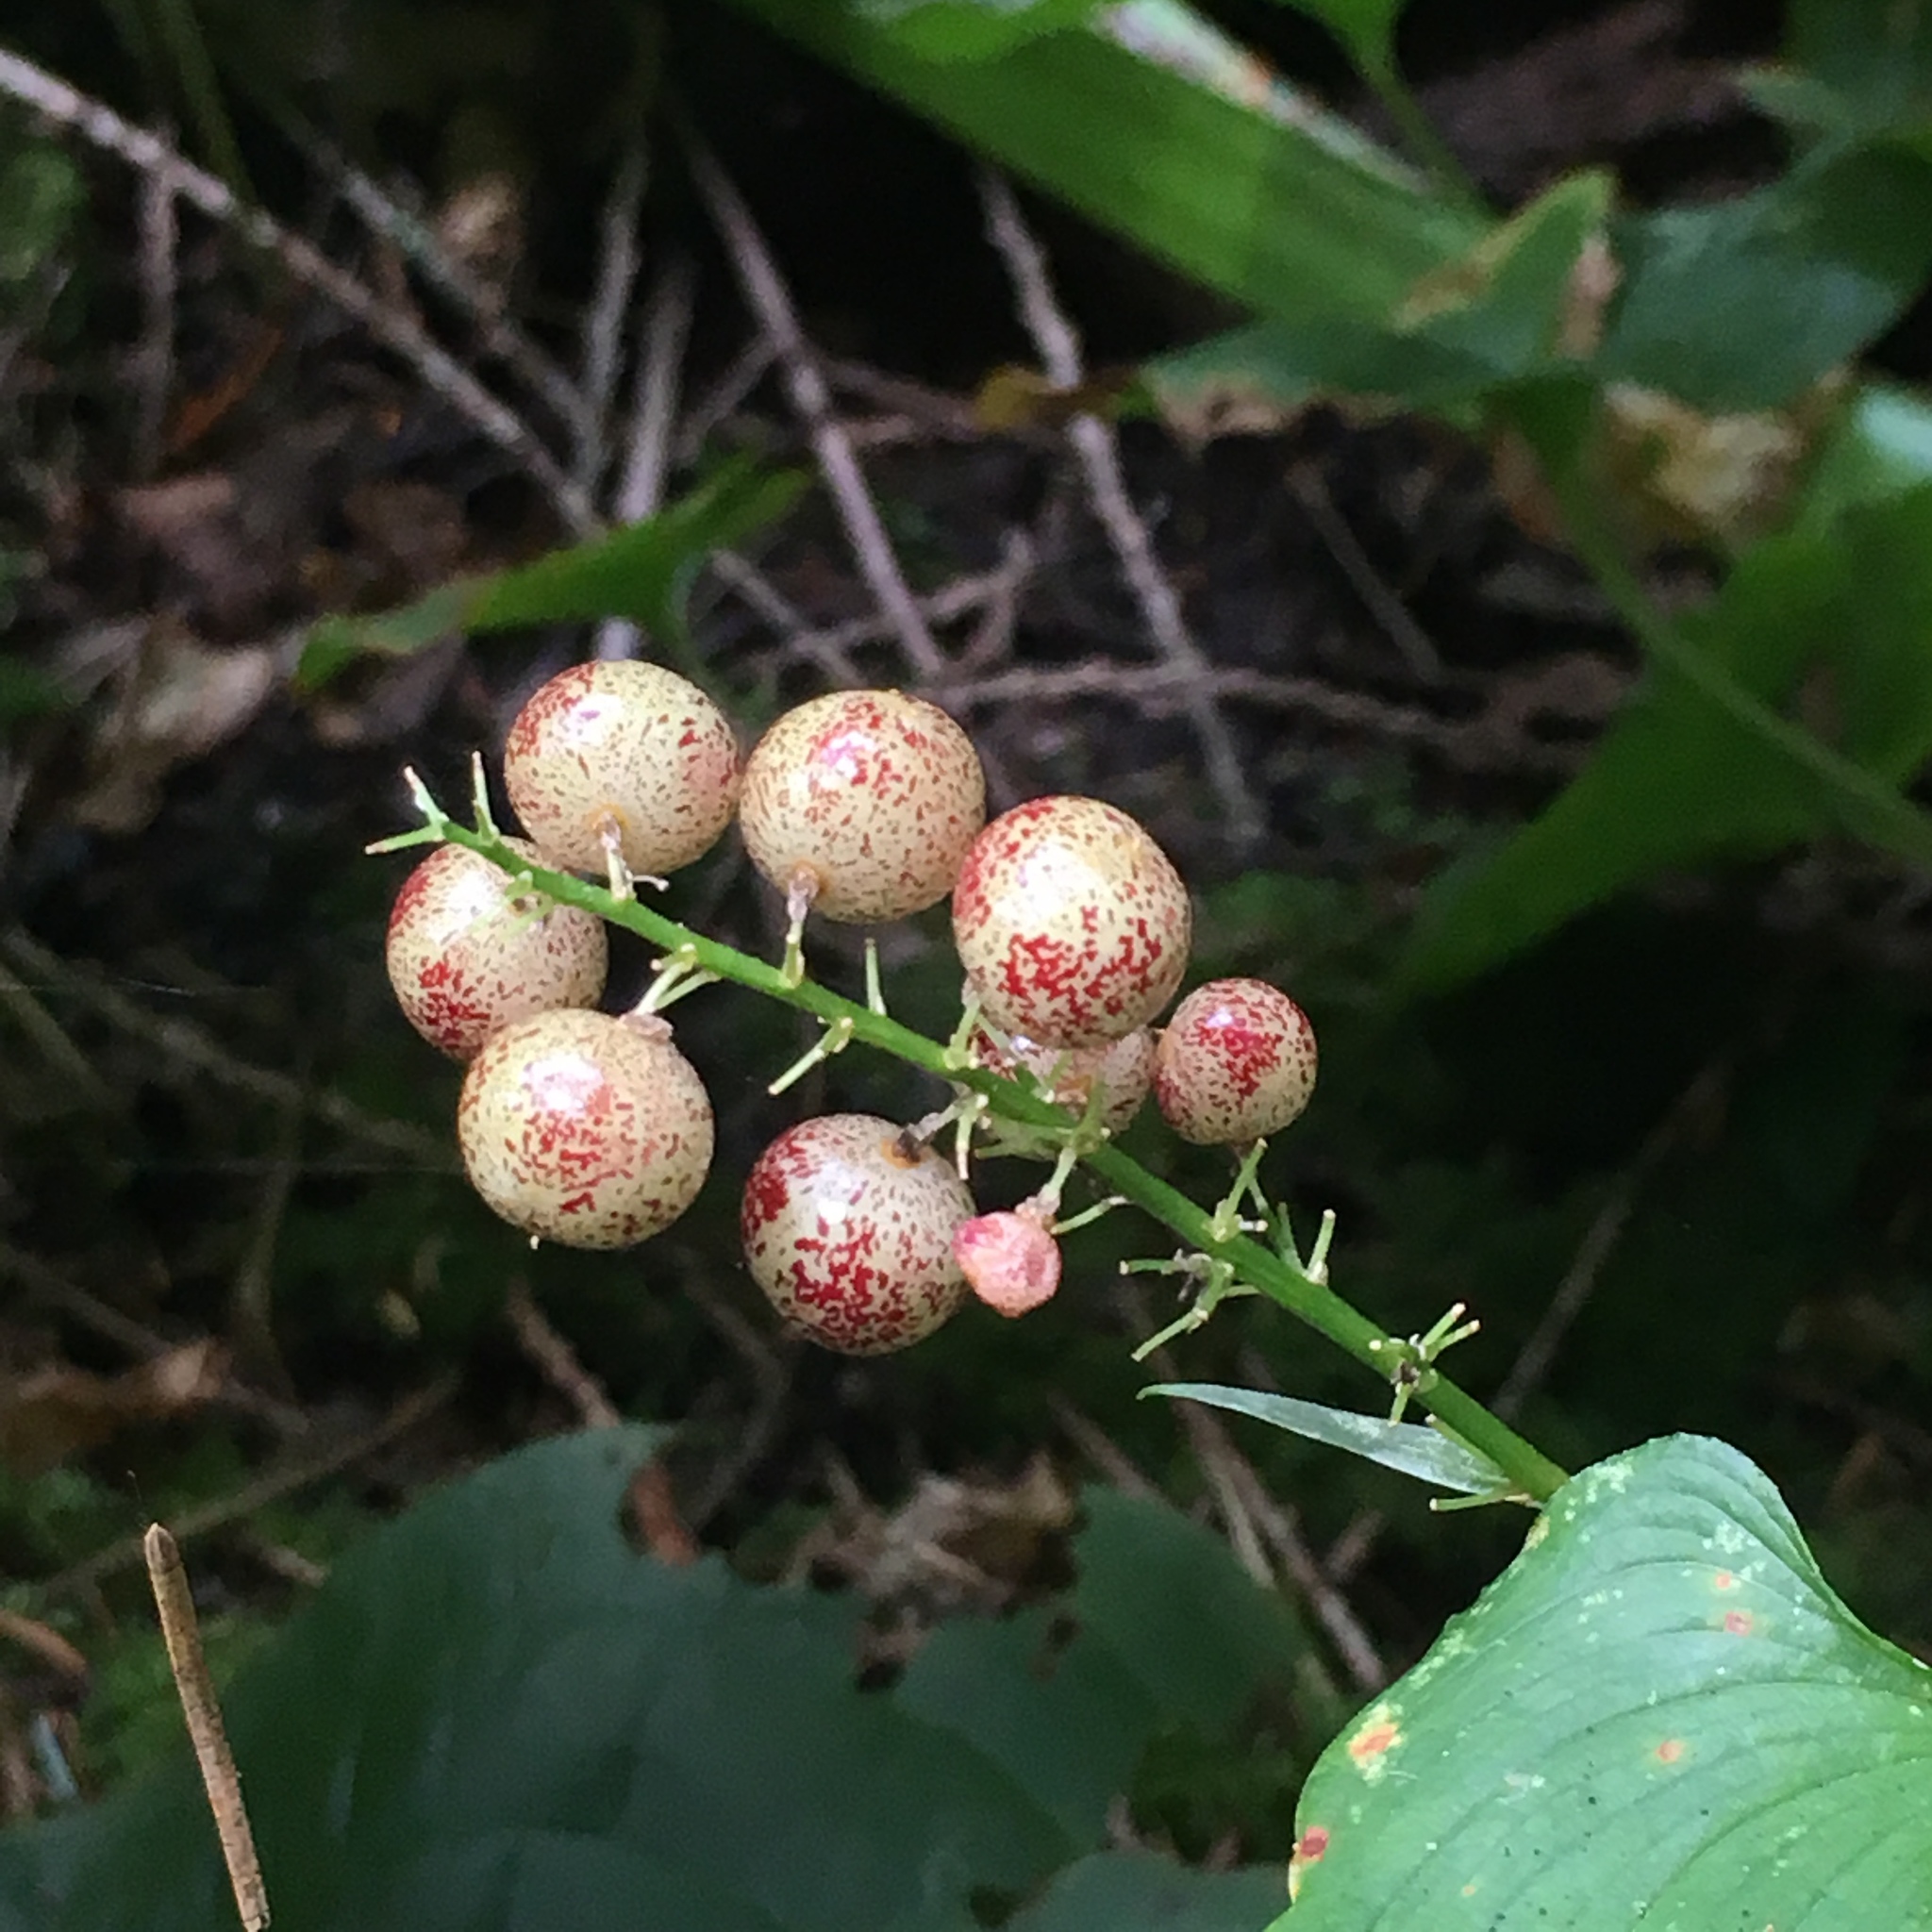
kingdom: Fungi
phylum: Ascomycota
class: Dothideomycetes
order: Mycosphaerellales
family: Mycosphaerellaceae
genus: Zasmidium
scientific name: Zasmidium subsanguineum
